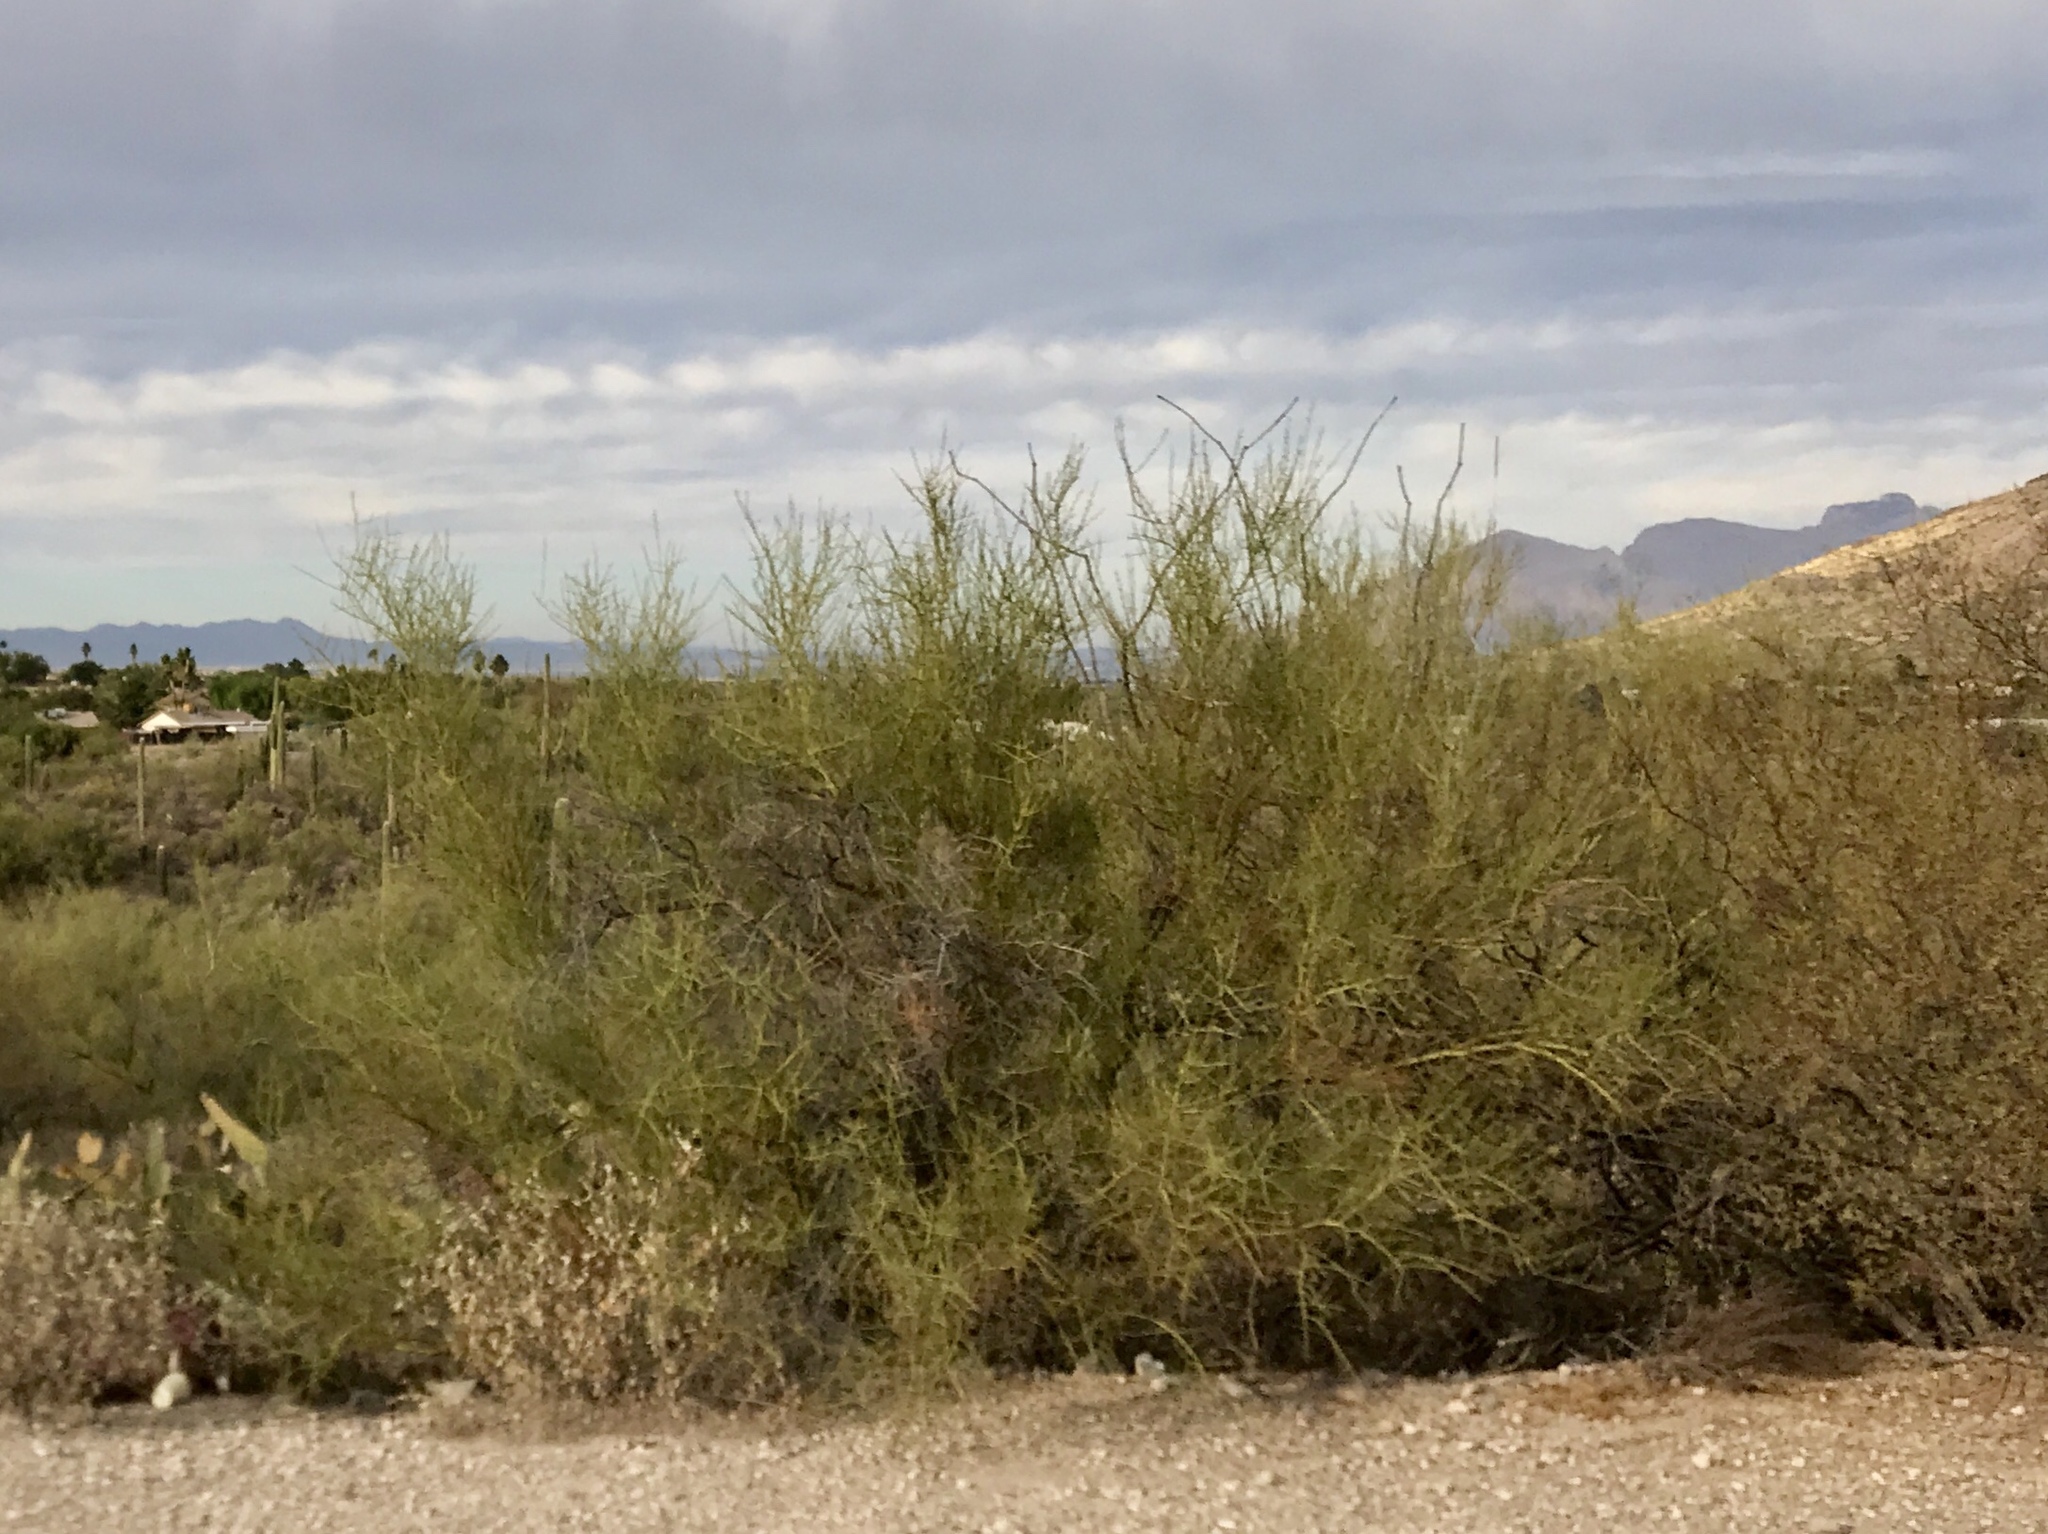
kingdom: Plantae
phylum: Tracheophyta
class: Magnoliopsida
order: Fabales
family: Fabaceae
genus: Parkinsonia
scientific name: Parkinsonia microphylla
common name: Yellow paloverde
